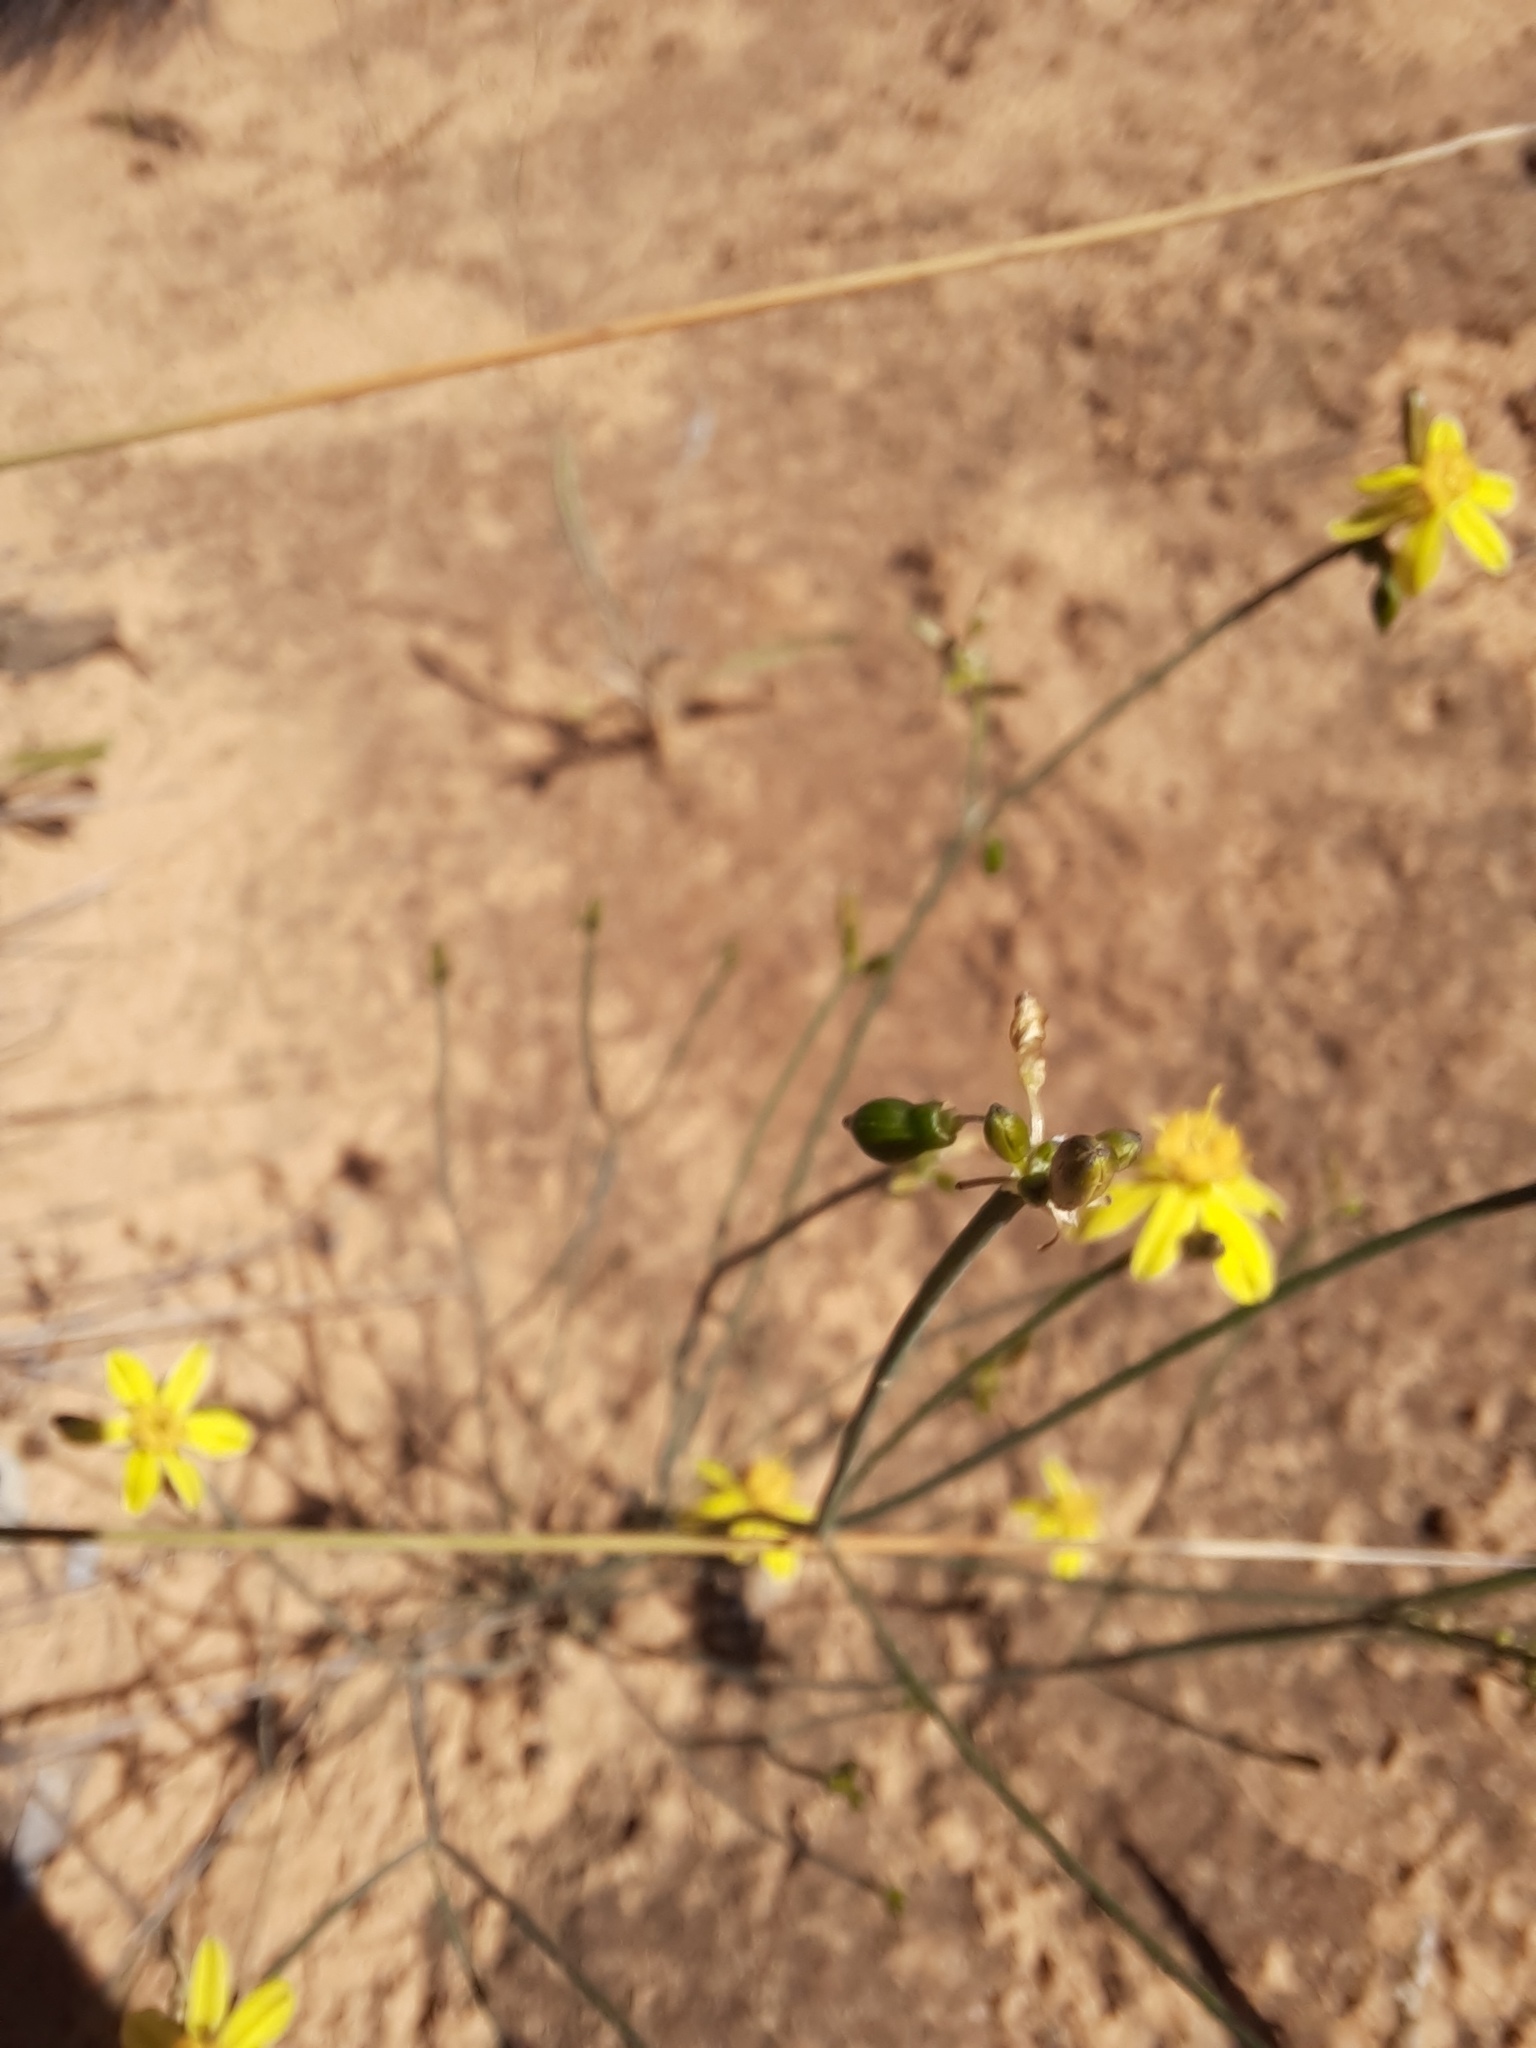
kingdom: Plantae
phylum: Tracheophyta
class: Liliopsida
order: Asparagales
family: Asphodelaceae
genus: Tricoryne
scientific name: Tricoryne tenella
